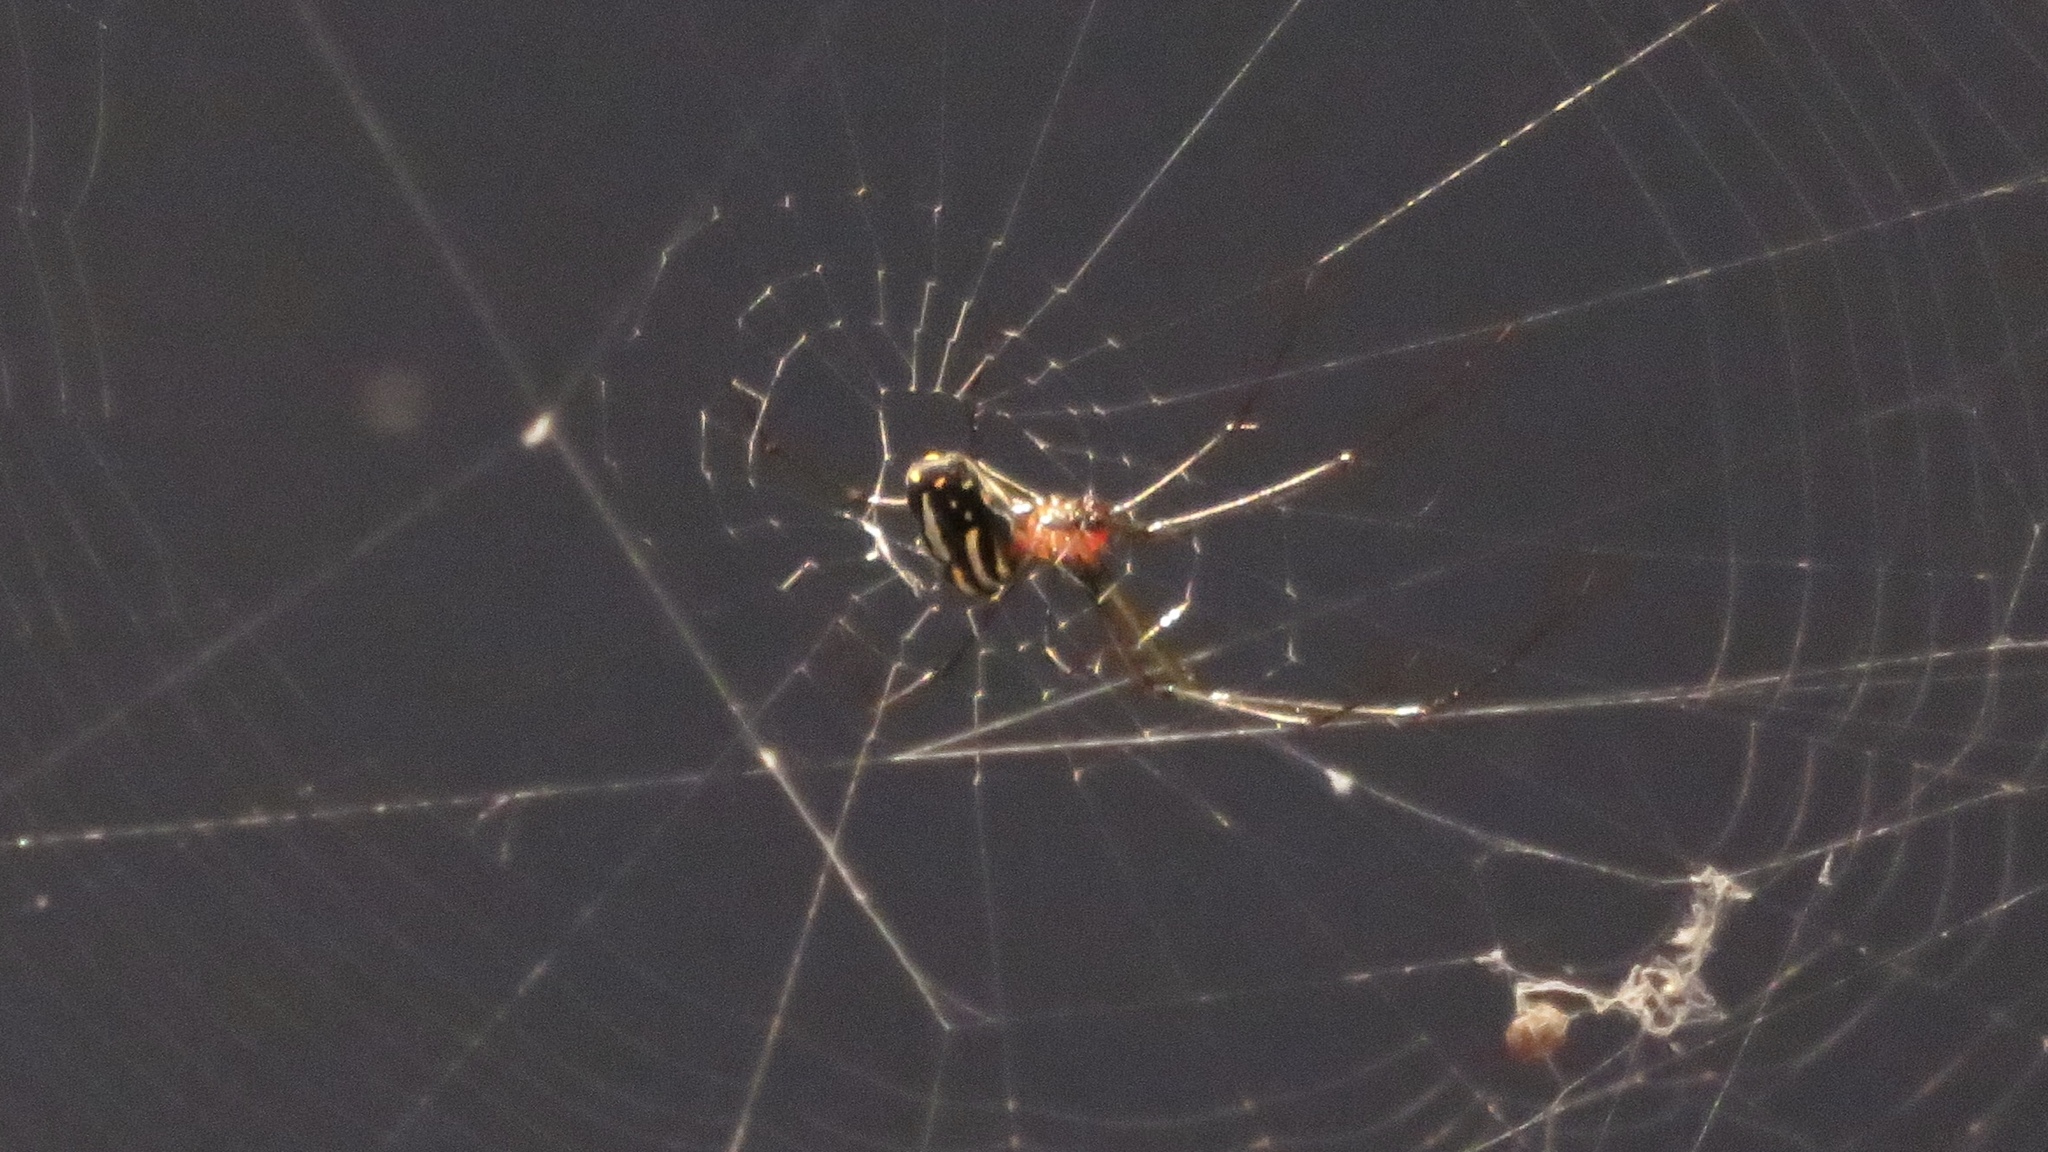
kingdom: Animalia
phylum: Arthropoda
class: Arachnida
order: Araneae
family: Tetragnathidae
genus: Leucauge
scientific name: Leucauge argyra
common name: Longjawed orb weavers
